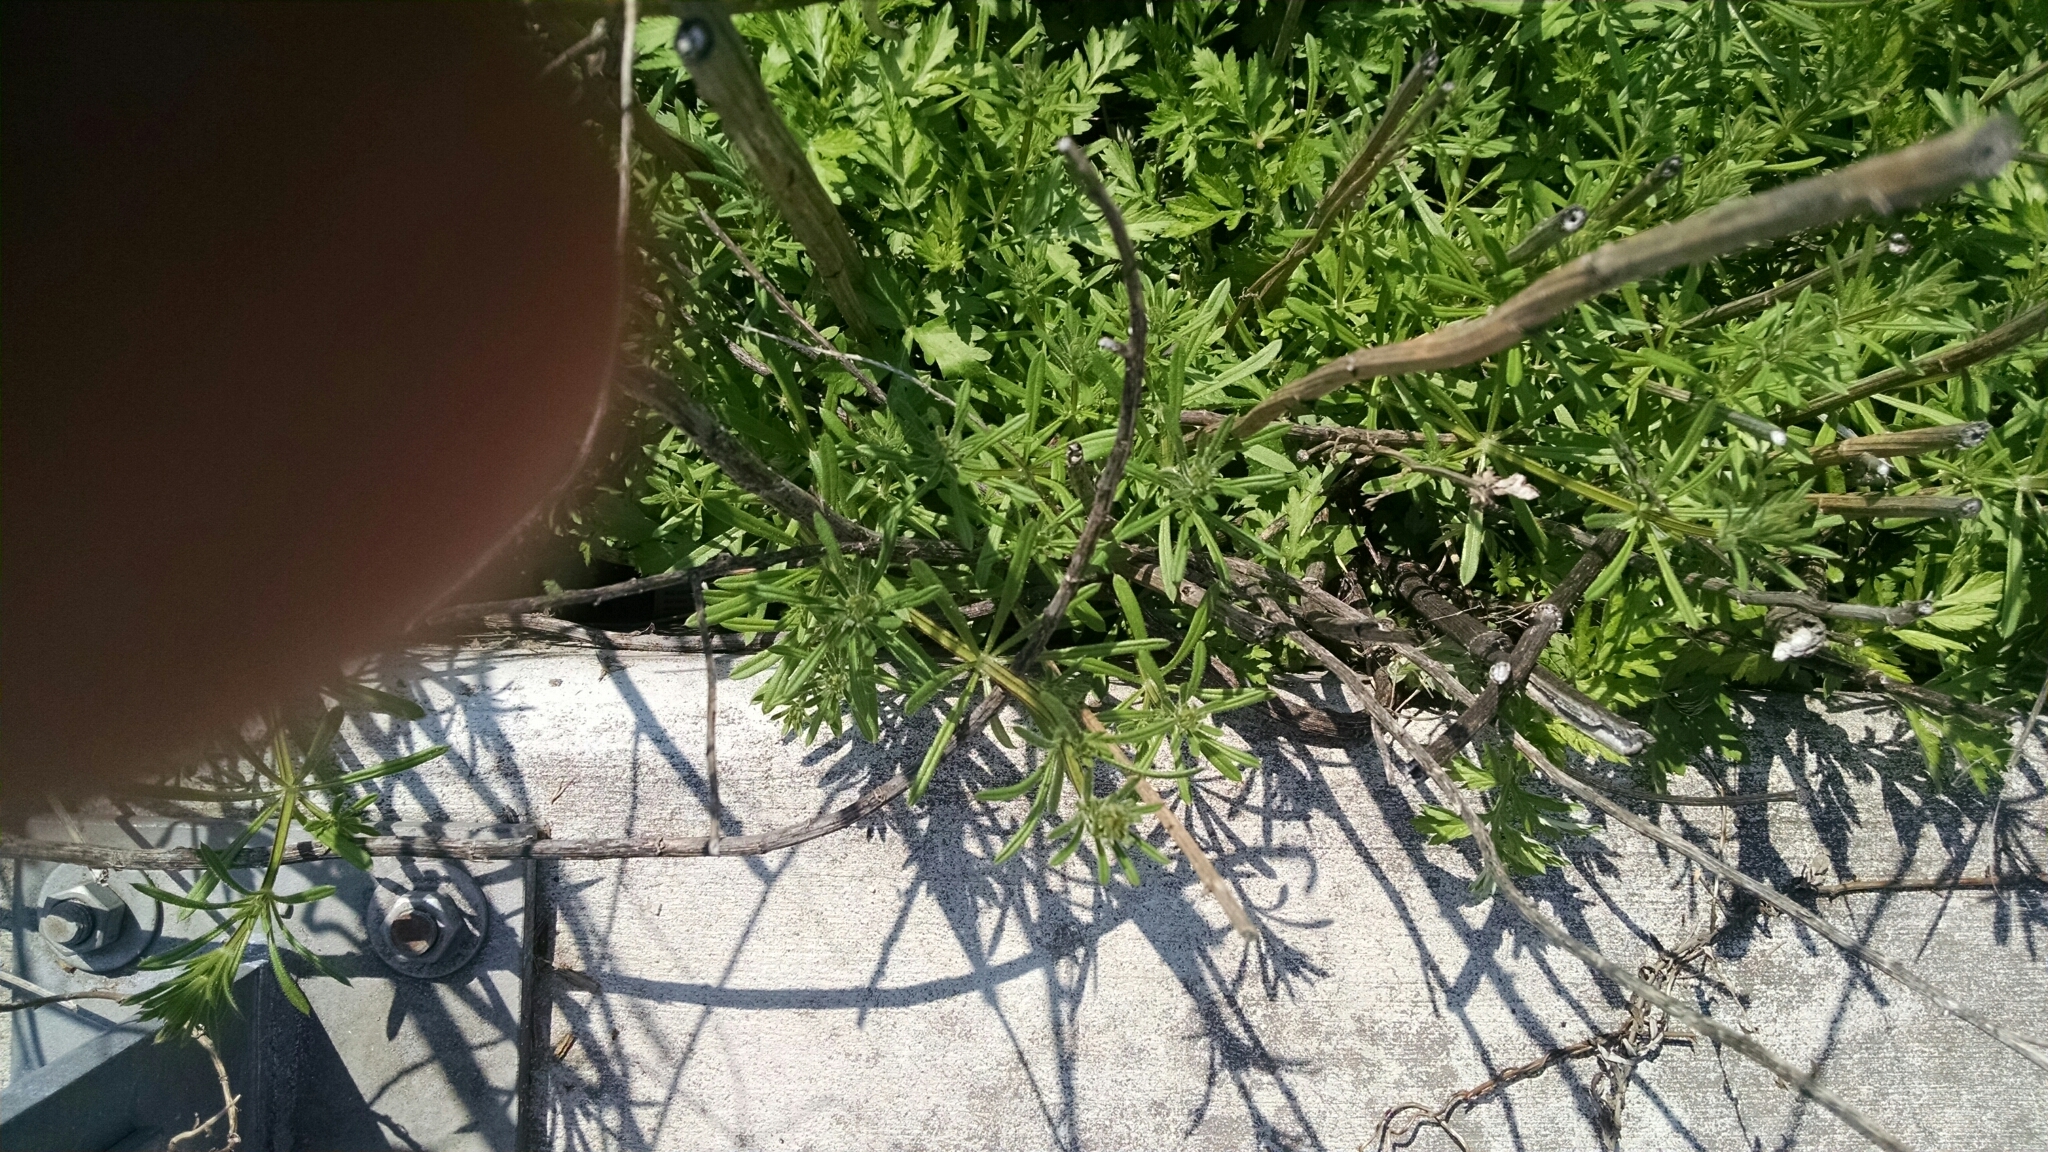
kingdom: Plantae
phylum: Tracheophyta
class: Magnoliopsida
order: Gentianales
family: Rubiaceae
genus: Galium
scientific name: Galium aparine
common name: Cleavers
